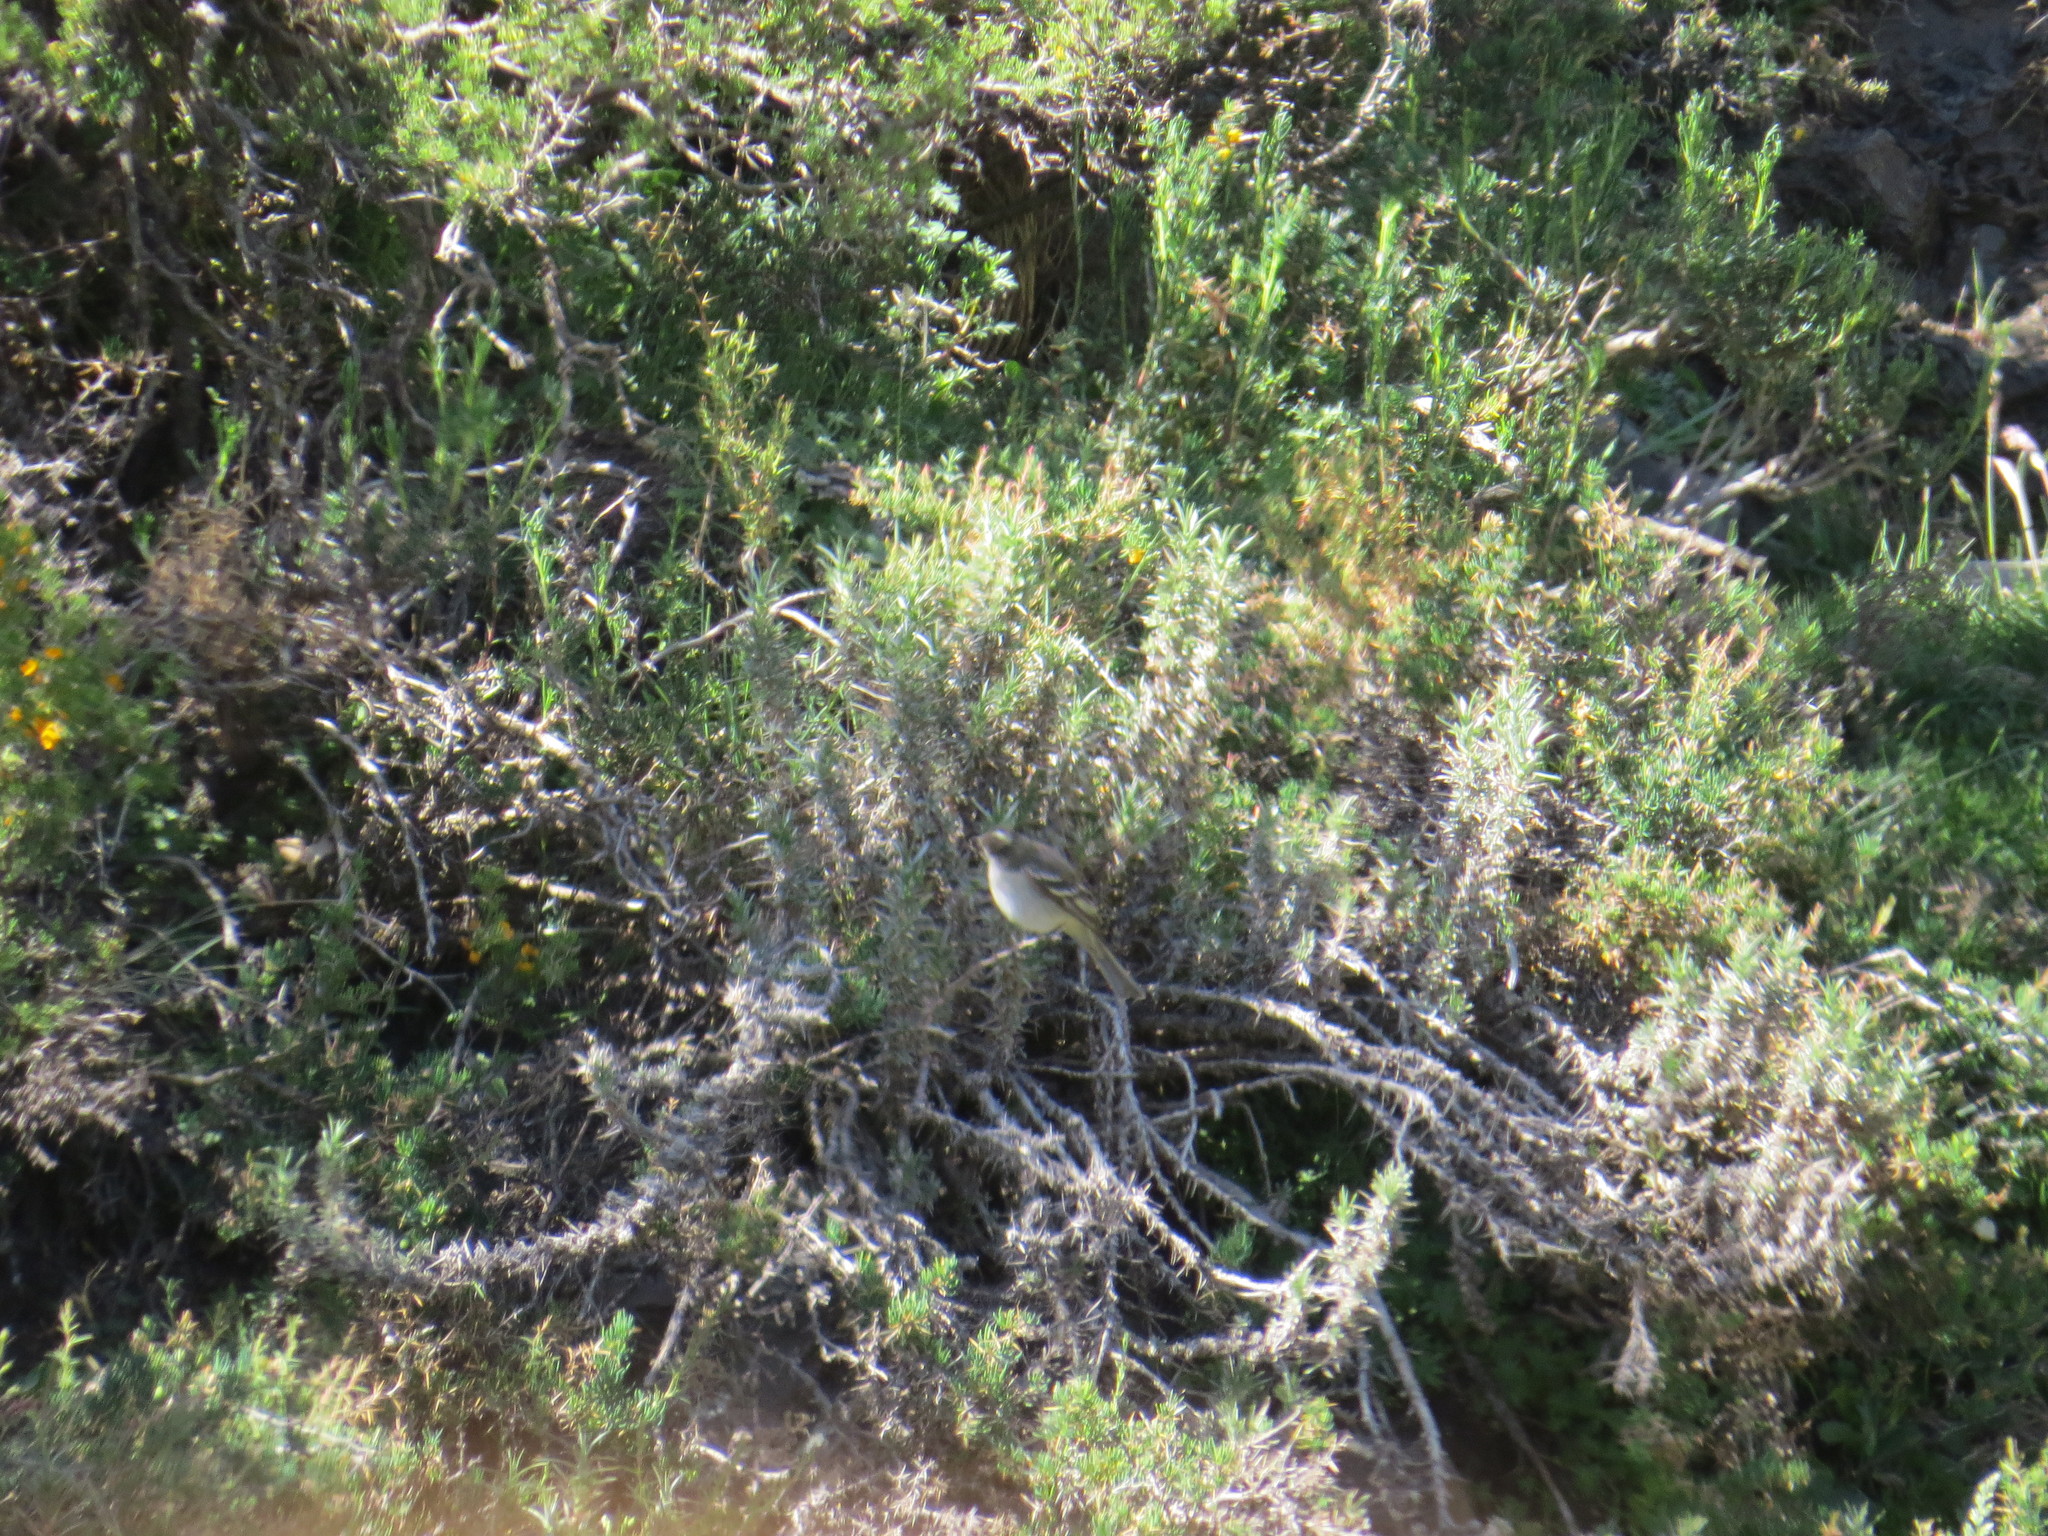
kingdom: Animalia
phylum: Chordata
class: Aves
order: Passeriformes
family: Tyrannidae
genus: Elaenia
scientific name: Elaenia albiceps
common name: White-crested elaenia
